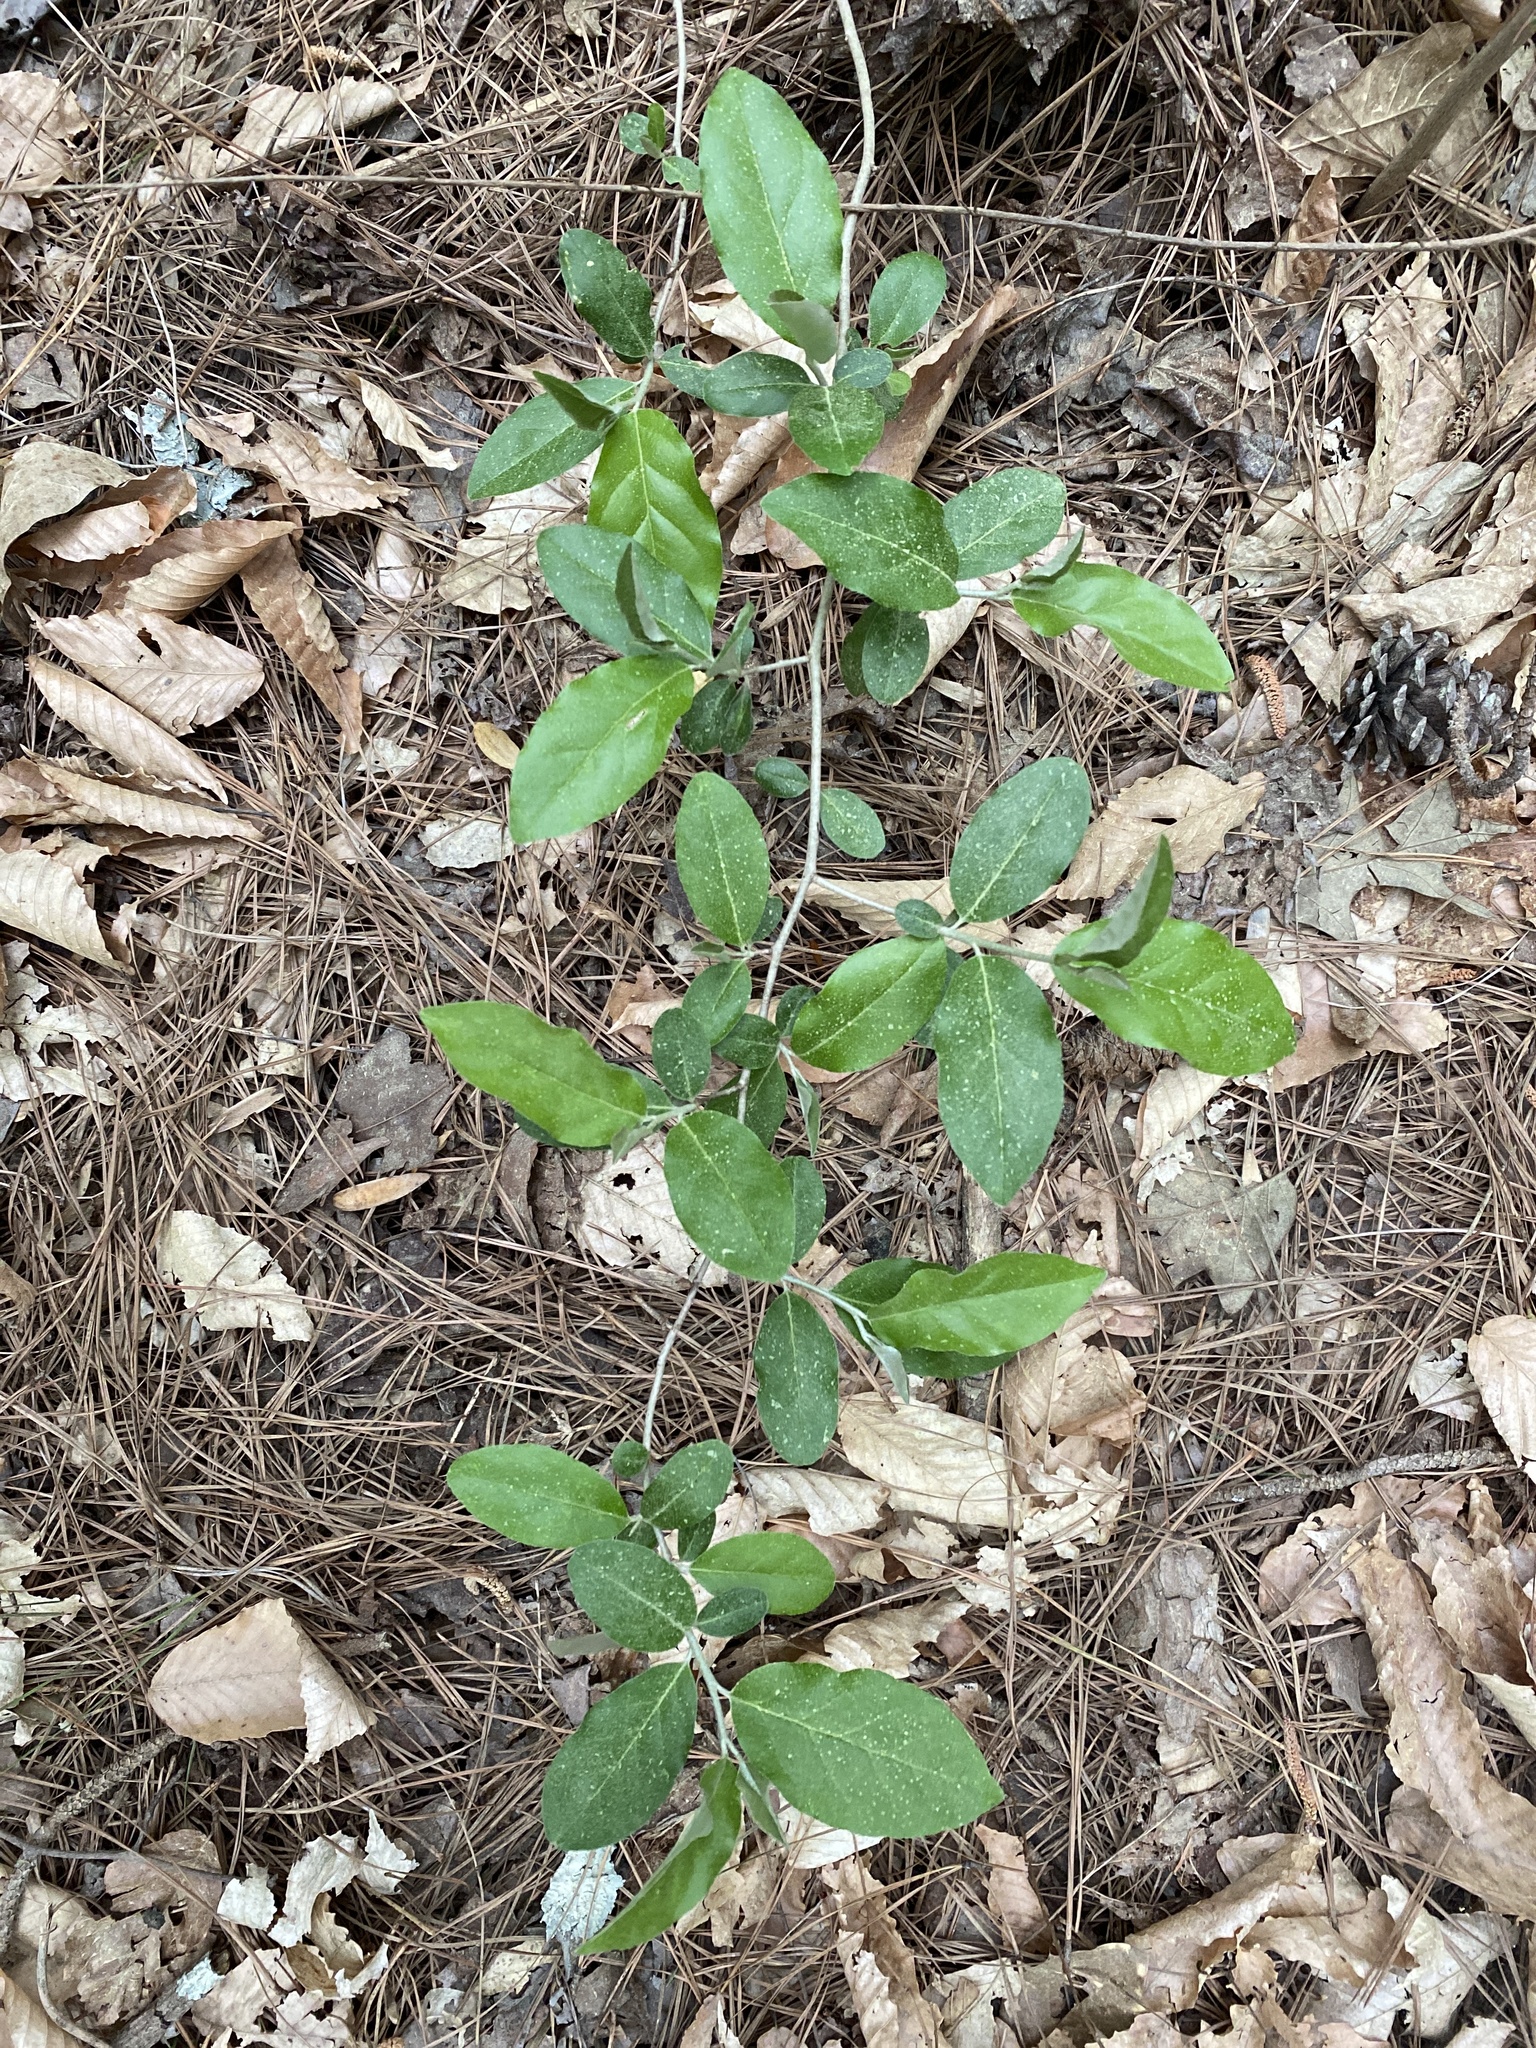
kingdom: Plantae
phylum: Tracheophyta
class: Magnoliopsida
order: Rosales
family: Elaeagnaceae
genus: Elaeagnus
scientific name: Elaeagnus umbellata
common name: Autumn olive
